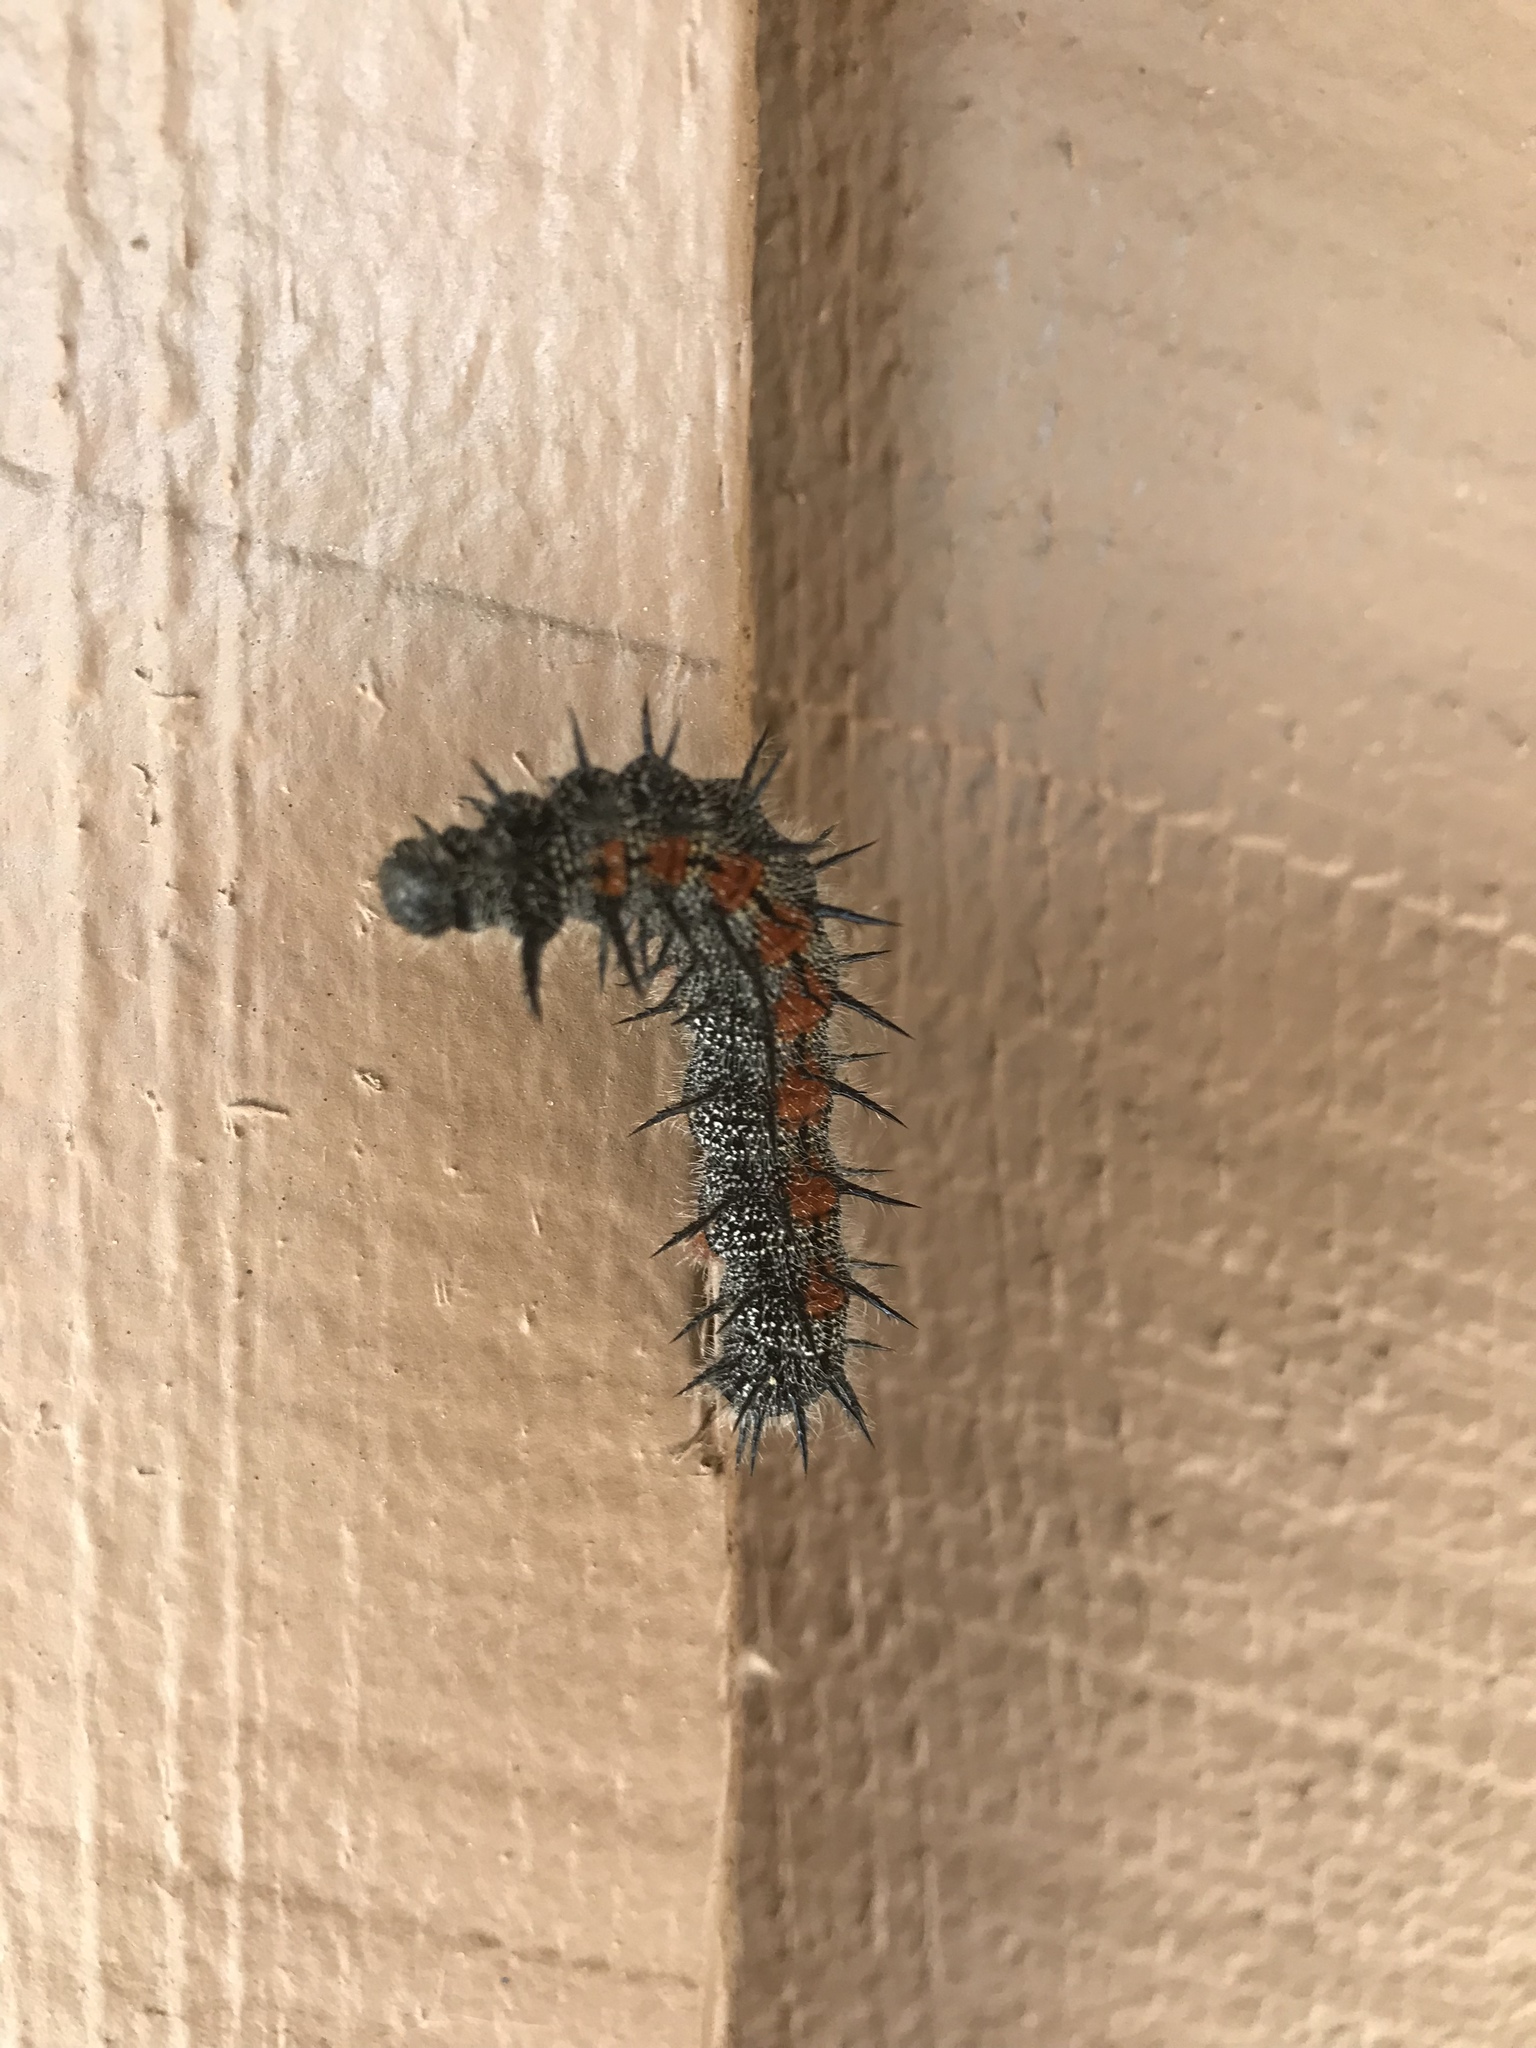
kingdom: Animalia
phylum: Arthropoda
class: Insecta
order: Lepidoptera
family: Nymphalidae
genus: Nymphalis
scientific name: Nymphalis antiopa
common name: Camberwell beauty
